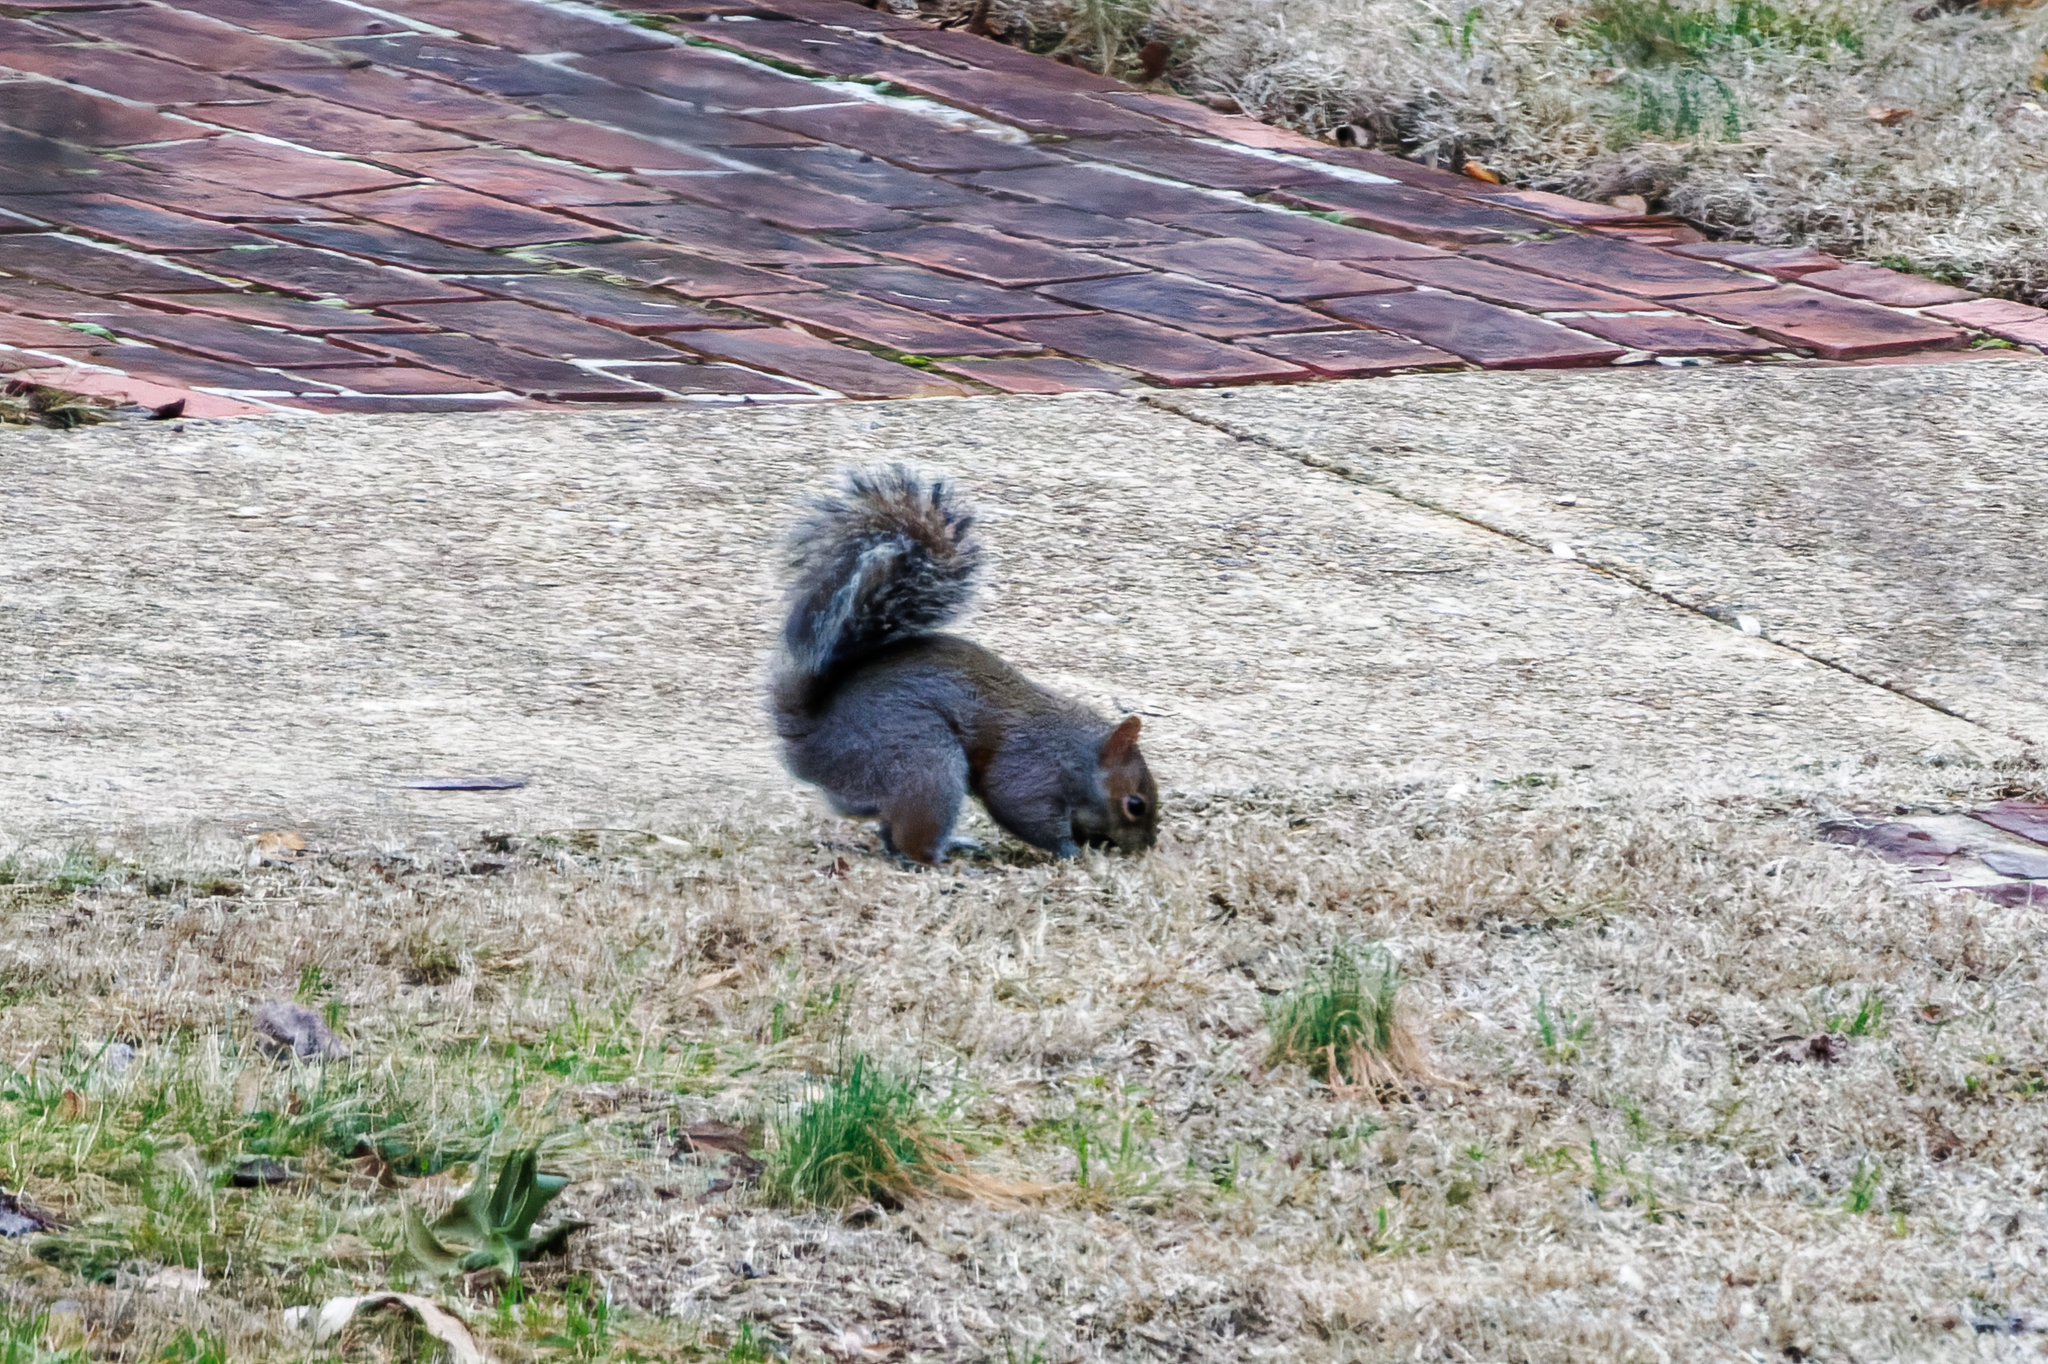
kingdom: Animalia
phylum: Chordata
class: Mammalia
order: Rodentia
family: Sciuridae
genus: Sciurus
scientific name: Sciurus carolinensis
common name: Eastern gray squirrel
